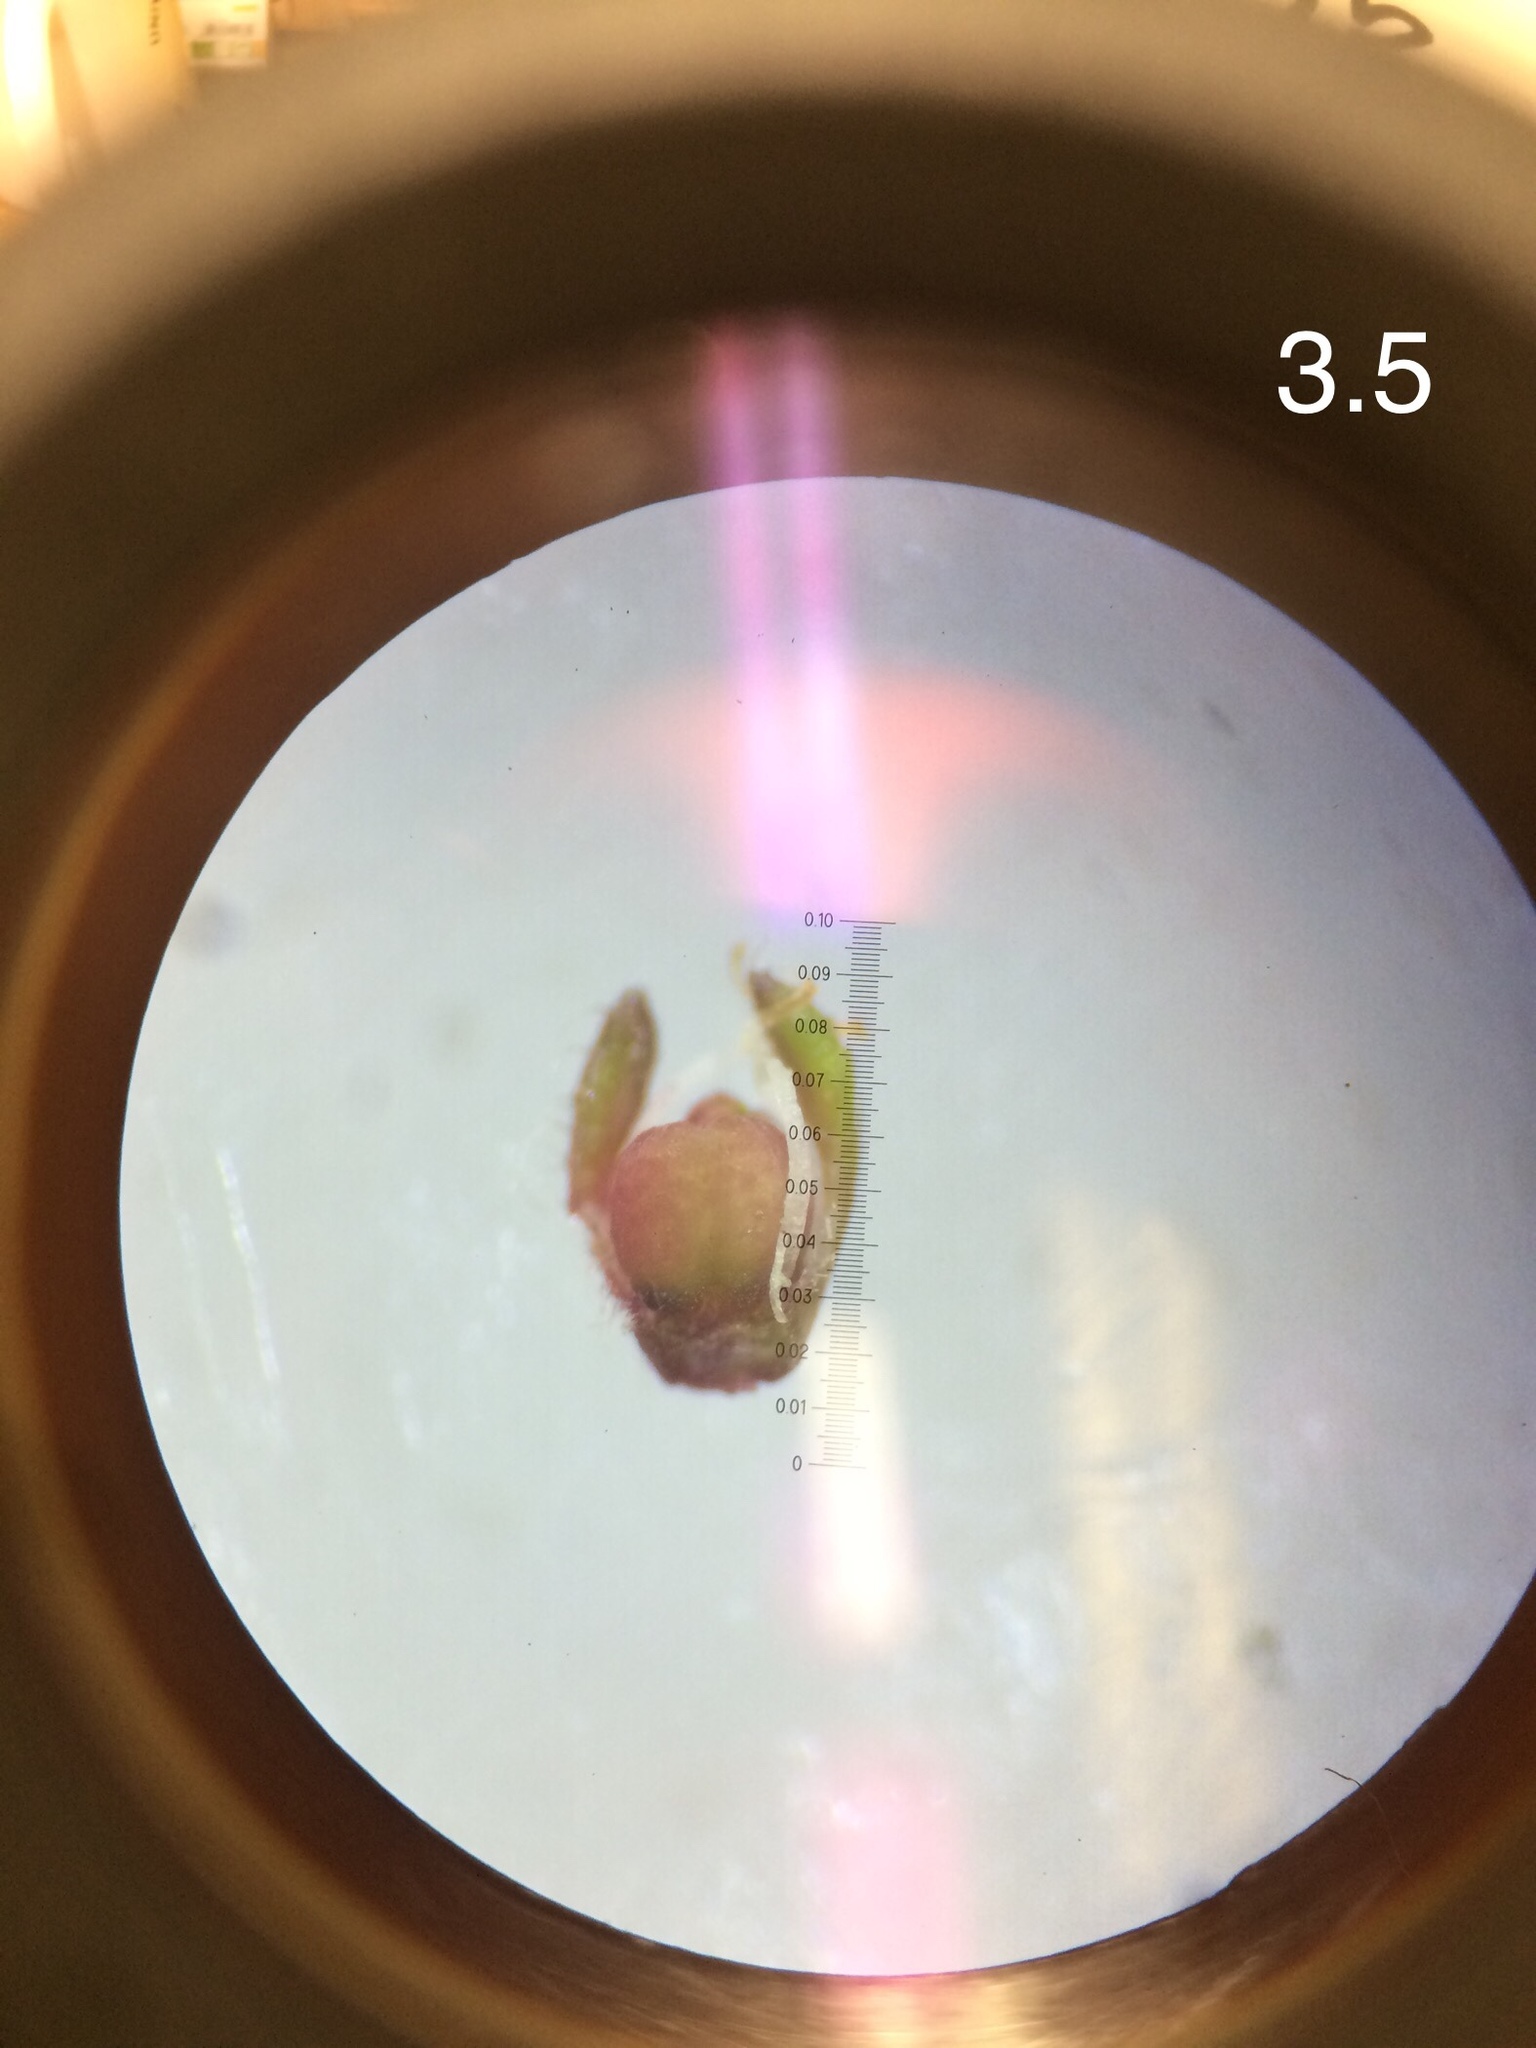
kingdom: Plantae
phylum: Tracheophyta
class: Magnoliopsida
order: Ericales
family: Ericaceae
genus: Erica
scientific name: Erica distorta
